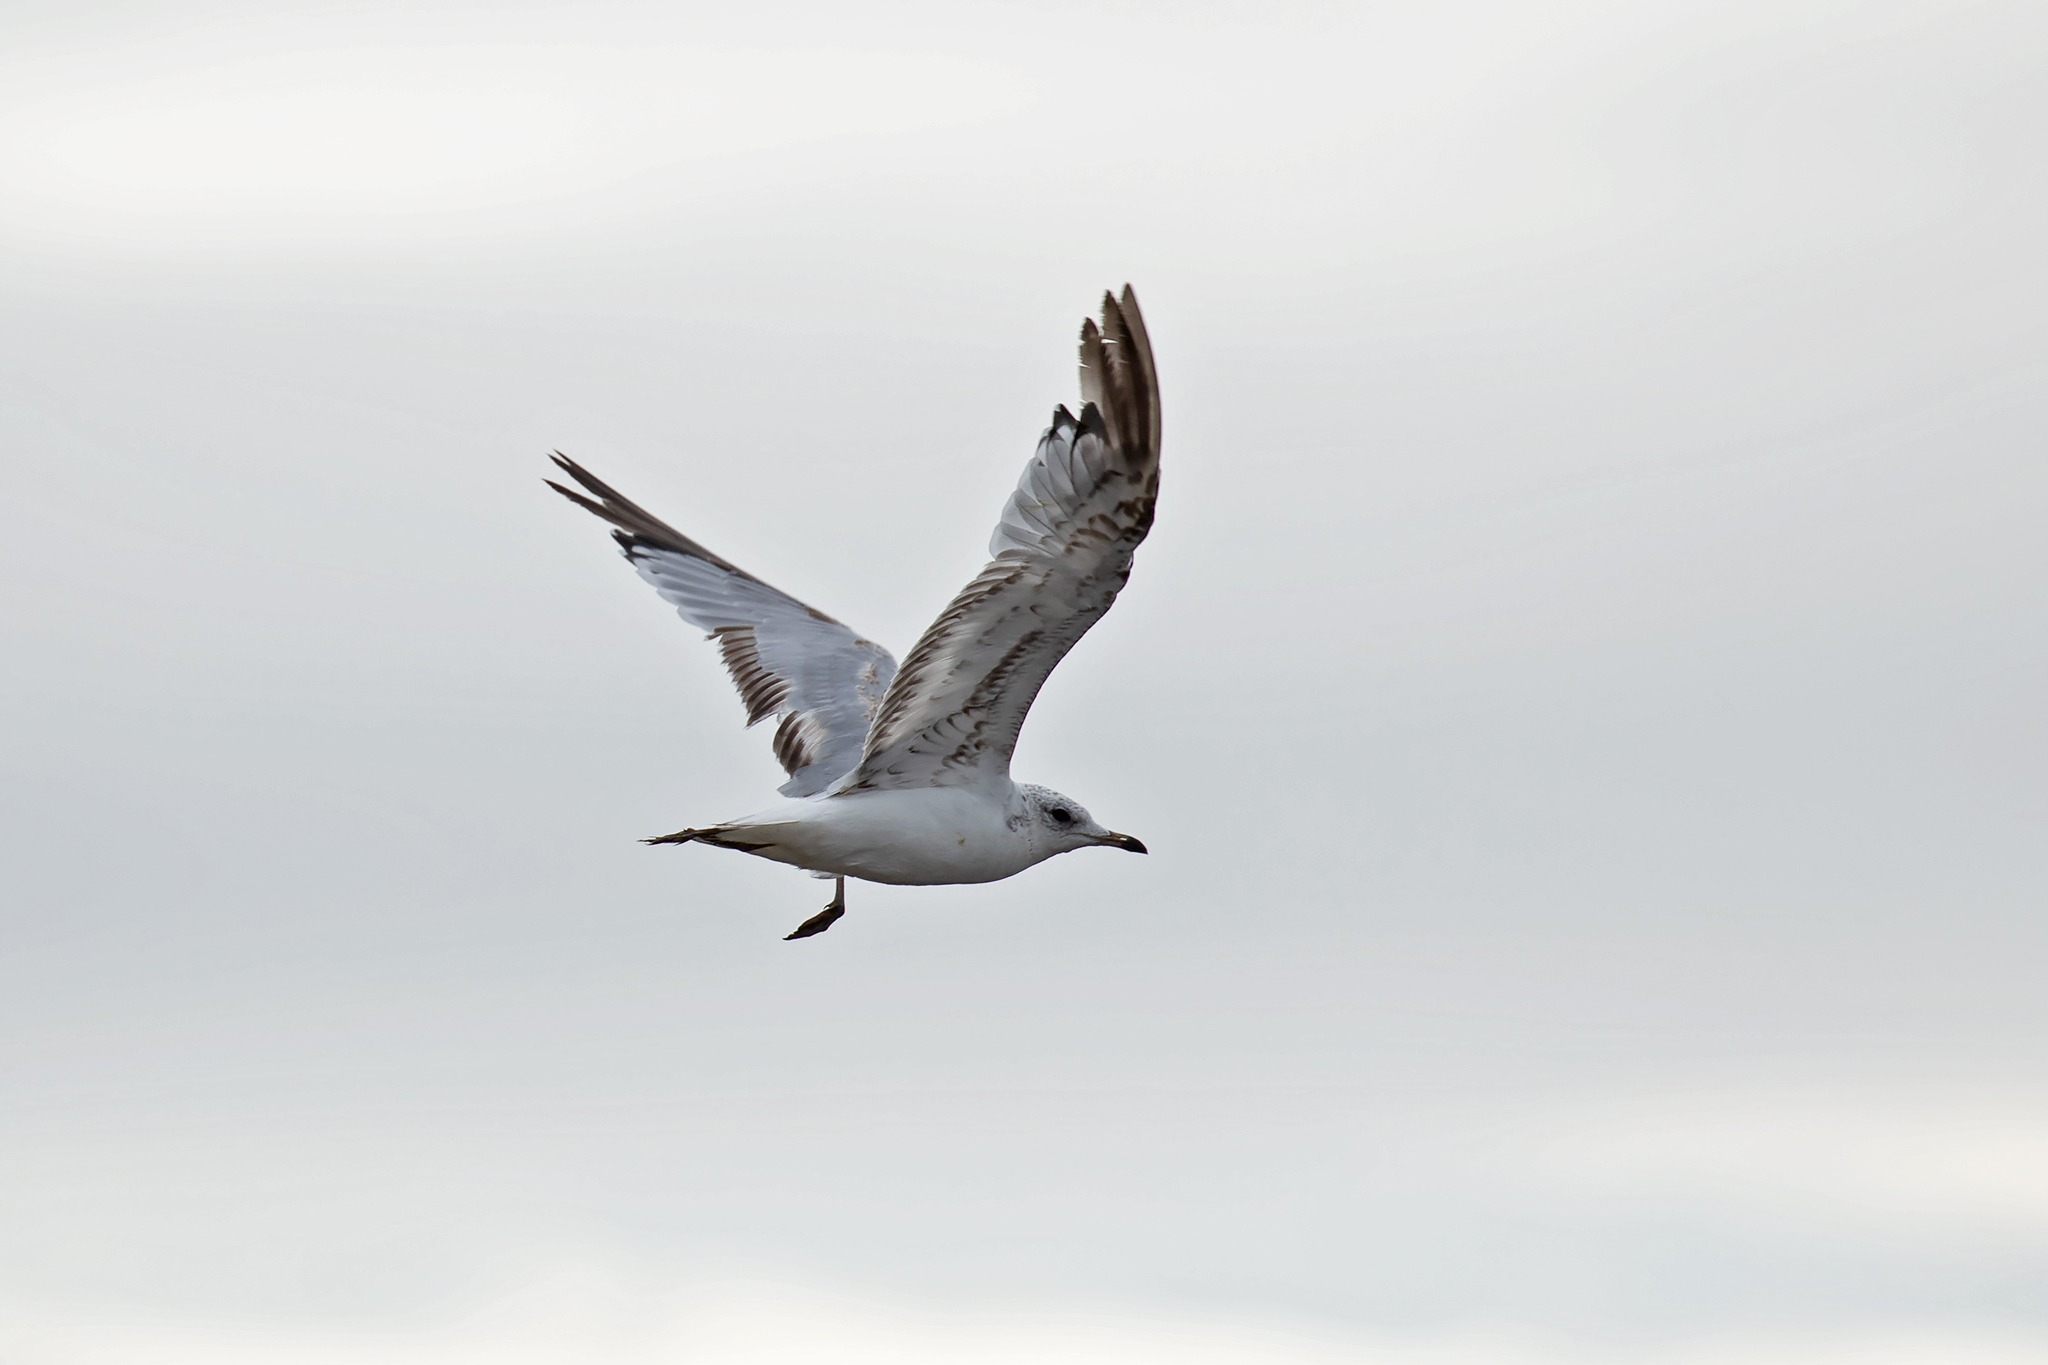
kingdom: Animalia
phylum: Chordata
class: Aves
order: Charadriiformes
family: Laridae
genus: Ichthyaetus
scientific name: Ichthyaetus melanocephalus
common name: Mediterranean gull
